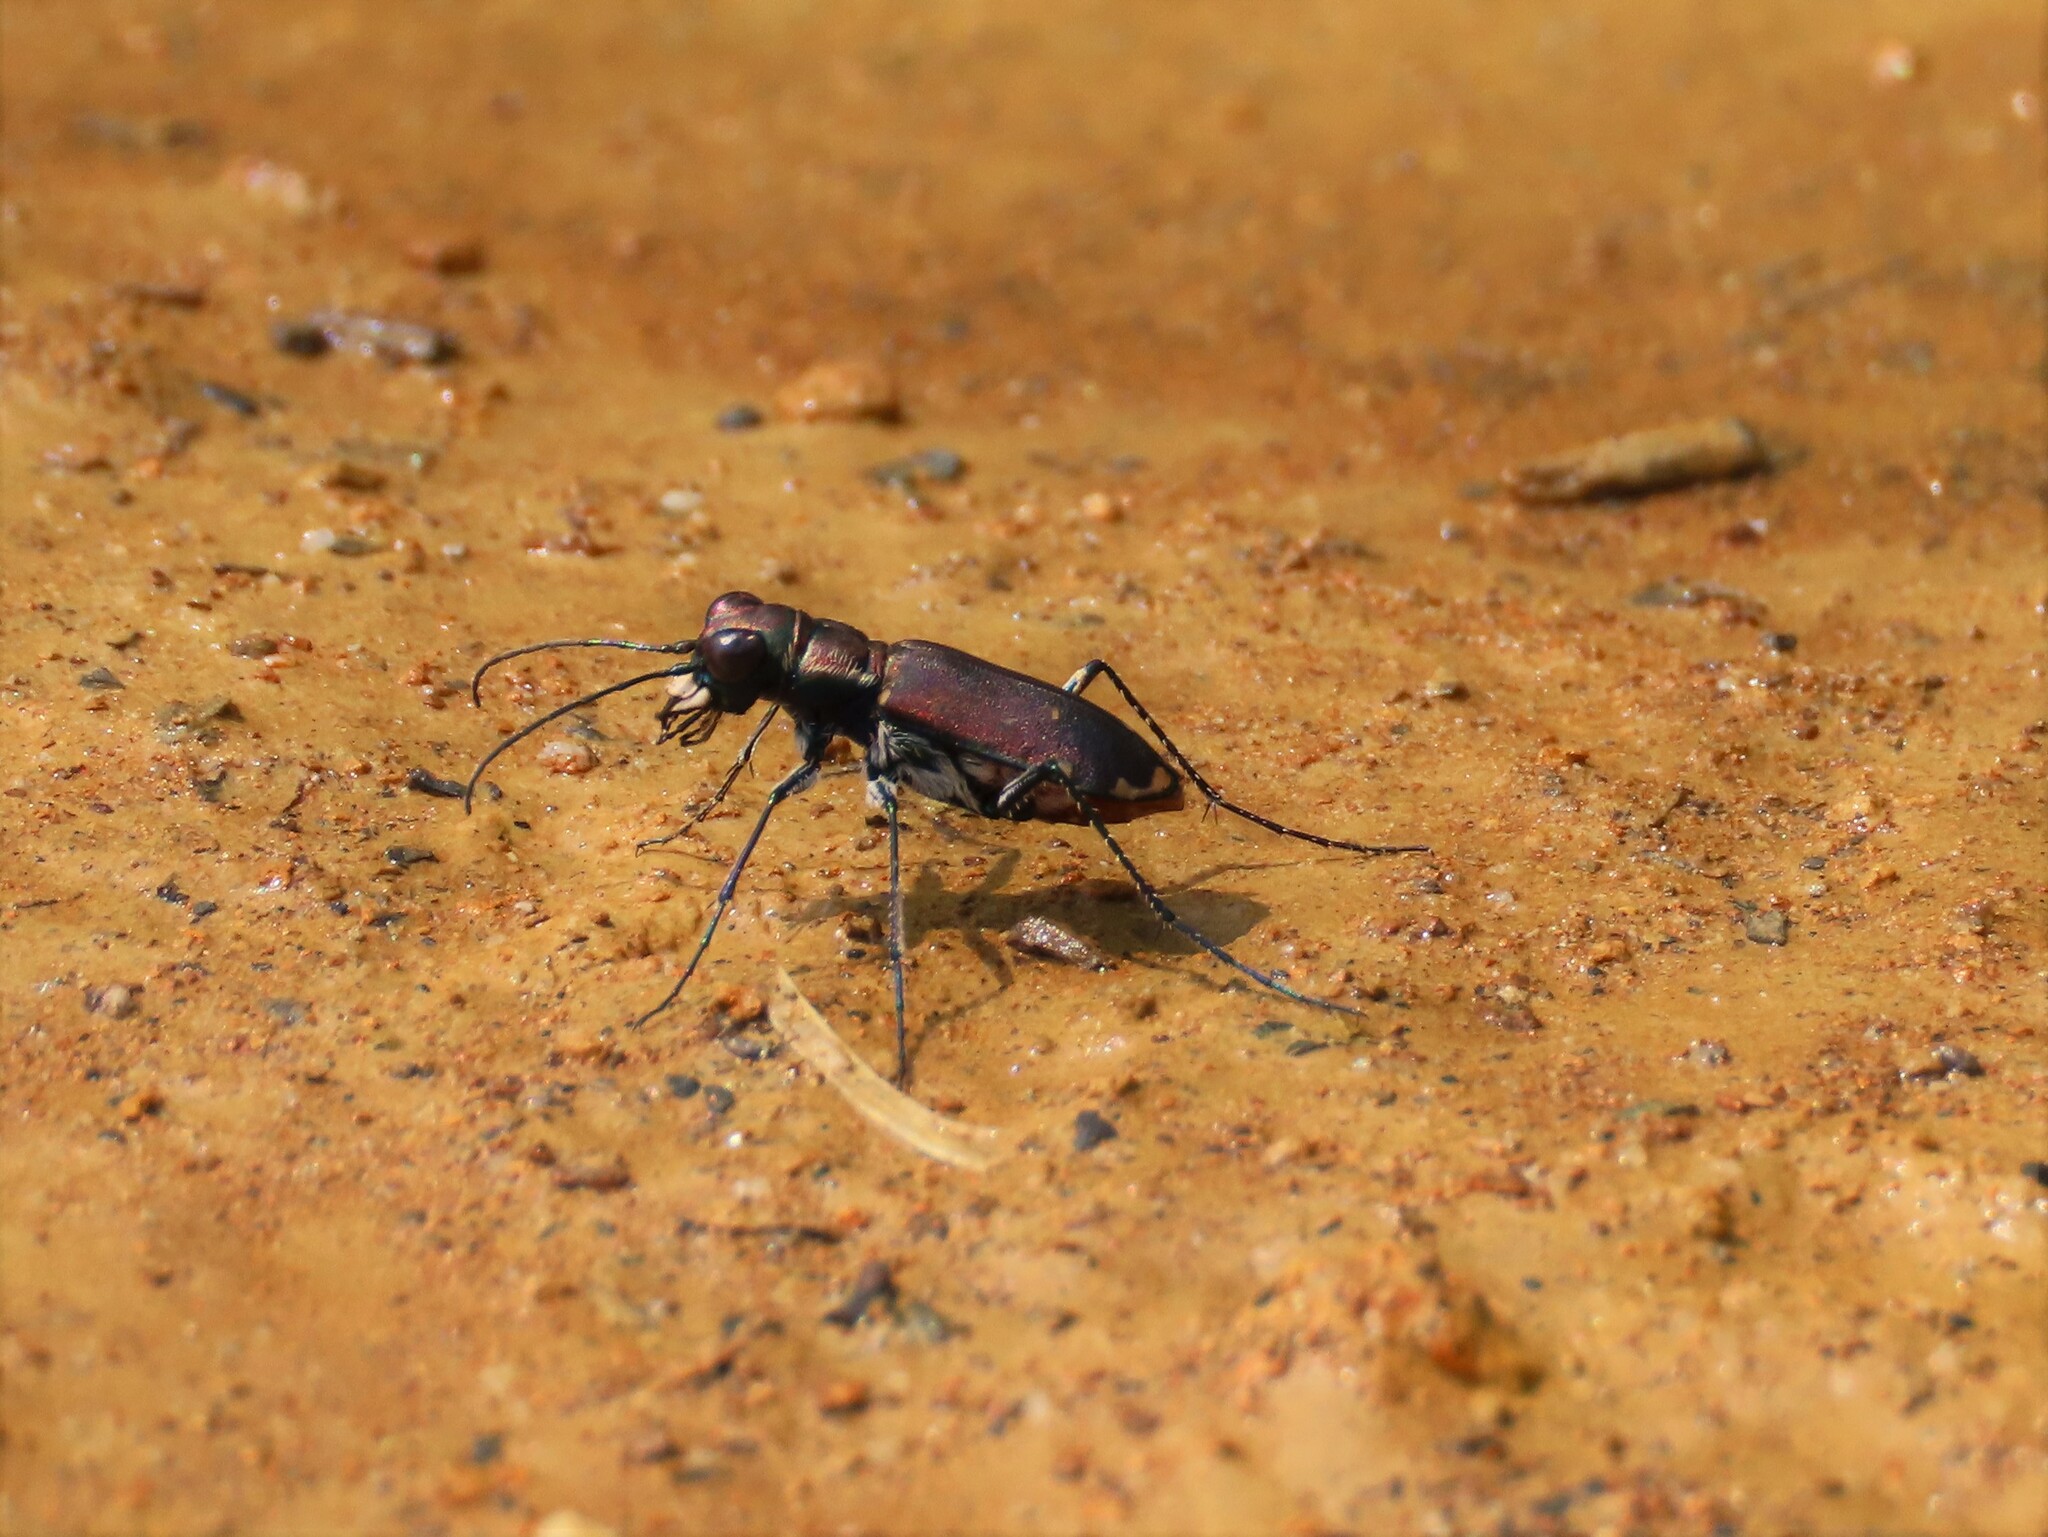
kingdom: Animalia
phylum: Arthropoda
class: Insecta
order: Coleoptera
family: Carabidae
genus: Cicindela
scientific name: Cicindela rufiventris
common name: Eastern red-bellied tiger beetle
